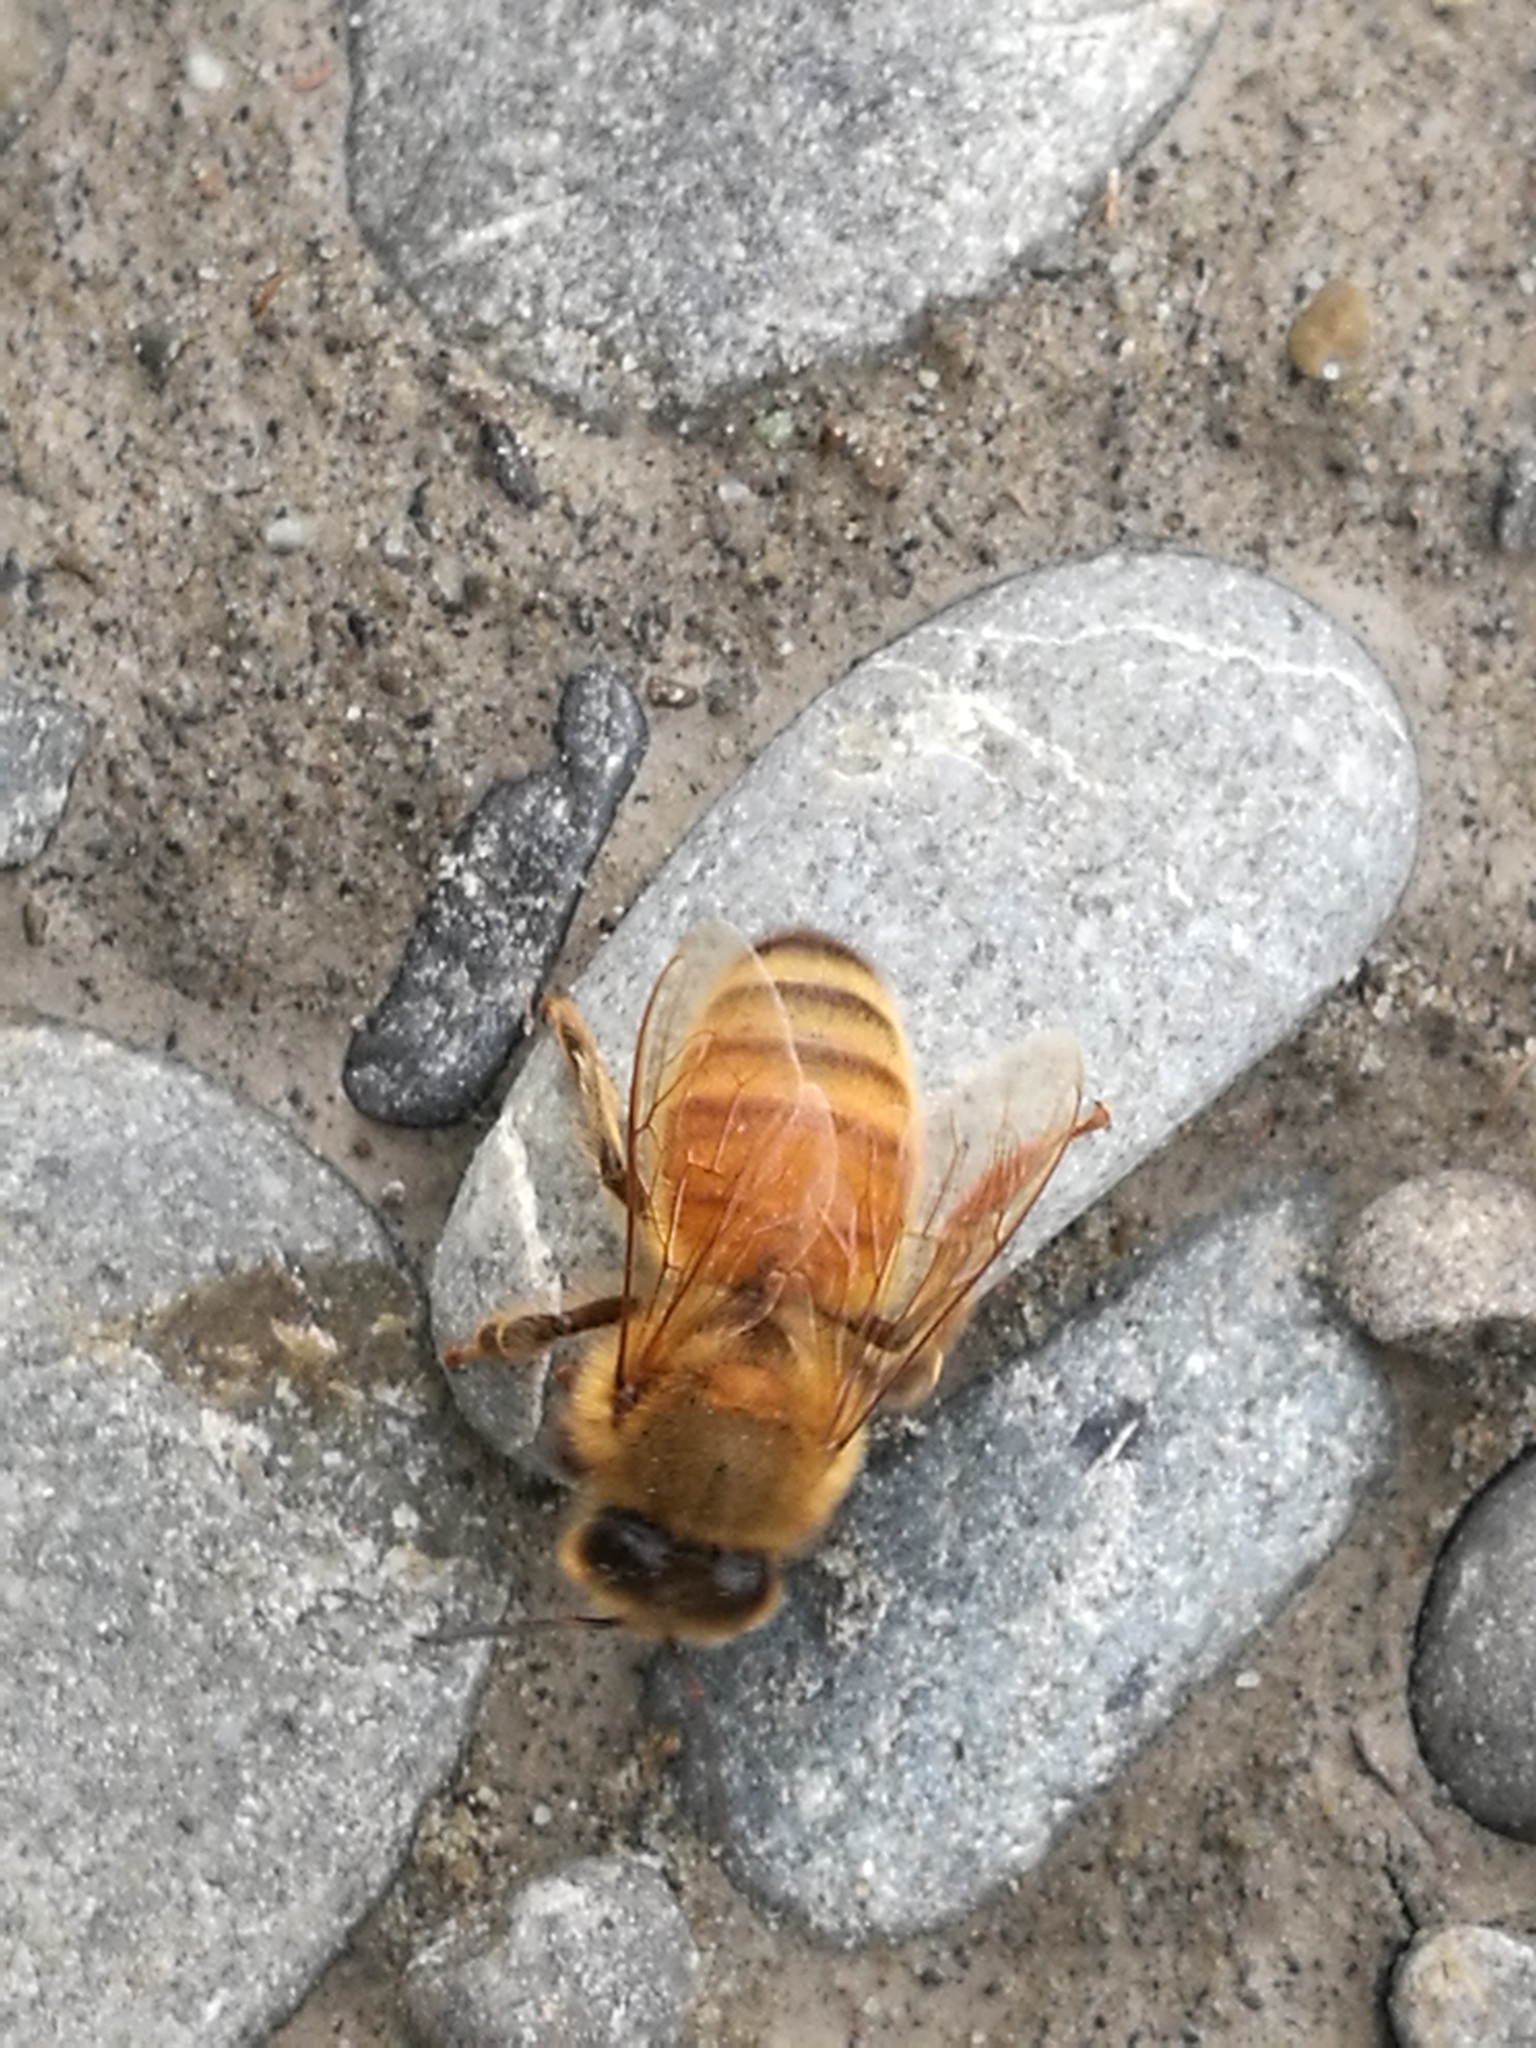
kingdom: Animalia
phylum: Arthropoda
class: Insecta
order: Hymenoptera
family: Apidae
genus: Apis
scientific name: Apis mellifera
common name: Honey bee
